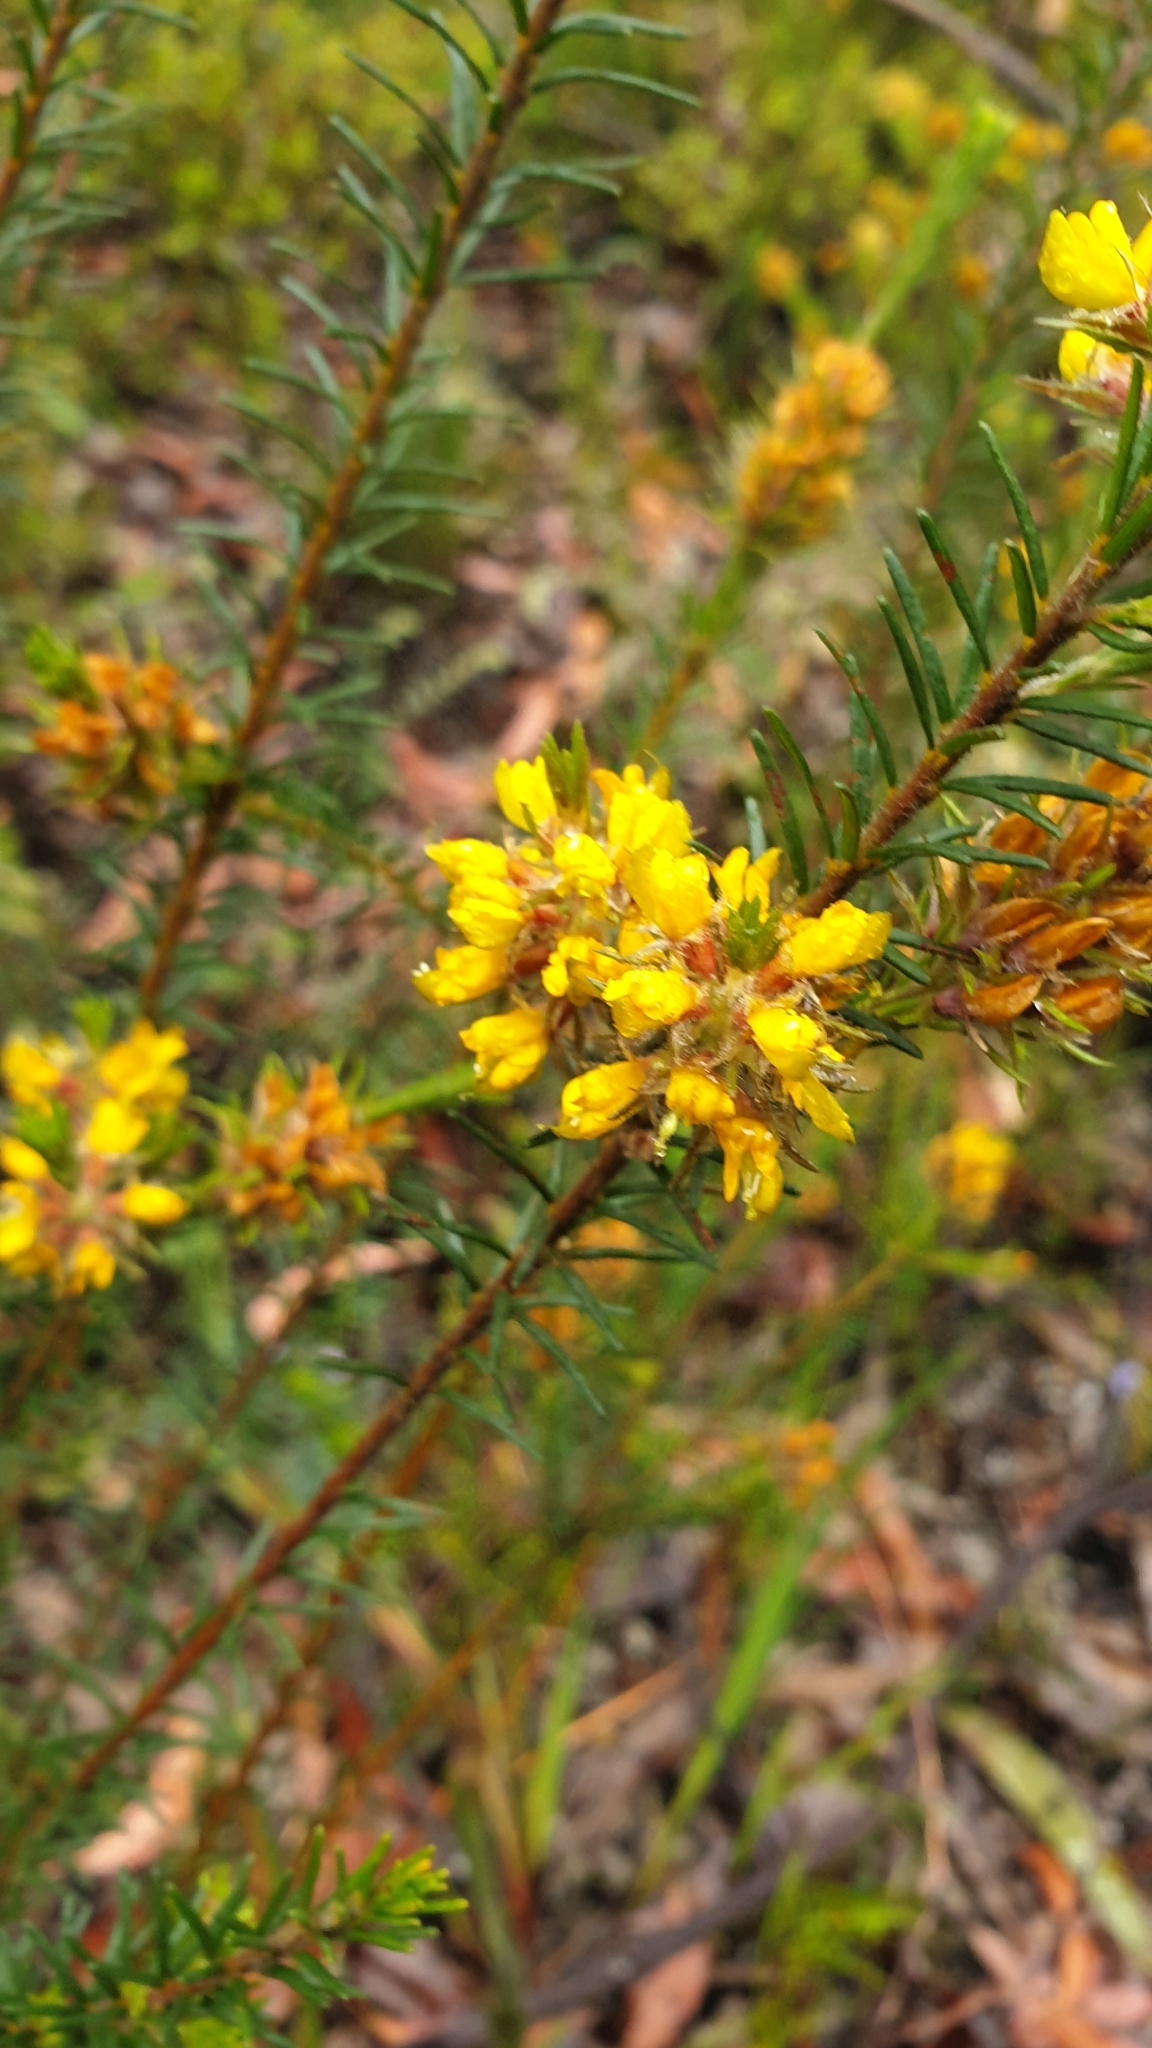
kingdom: Plantae
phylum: Tracheophyta
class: Magnoliopsida
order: Fabales
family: Fabaceae
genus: Phyllota
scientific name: Phyllota phylicoides
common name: Heath phyllota
